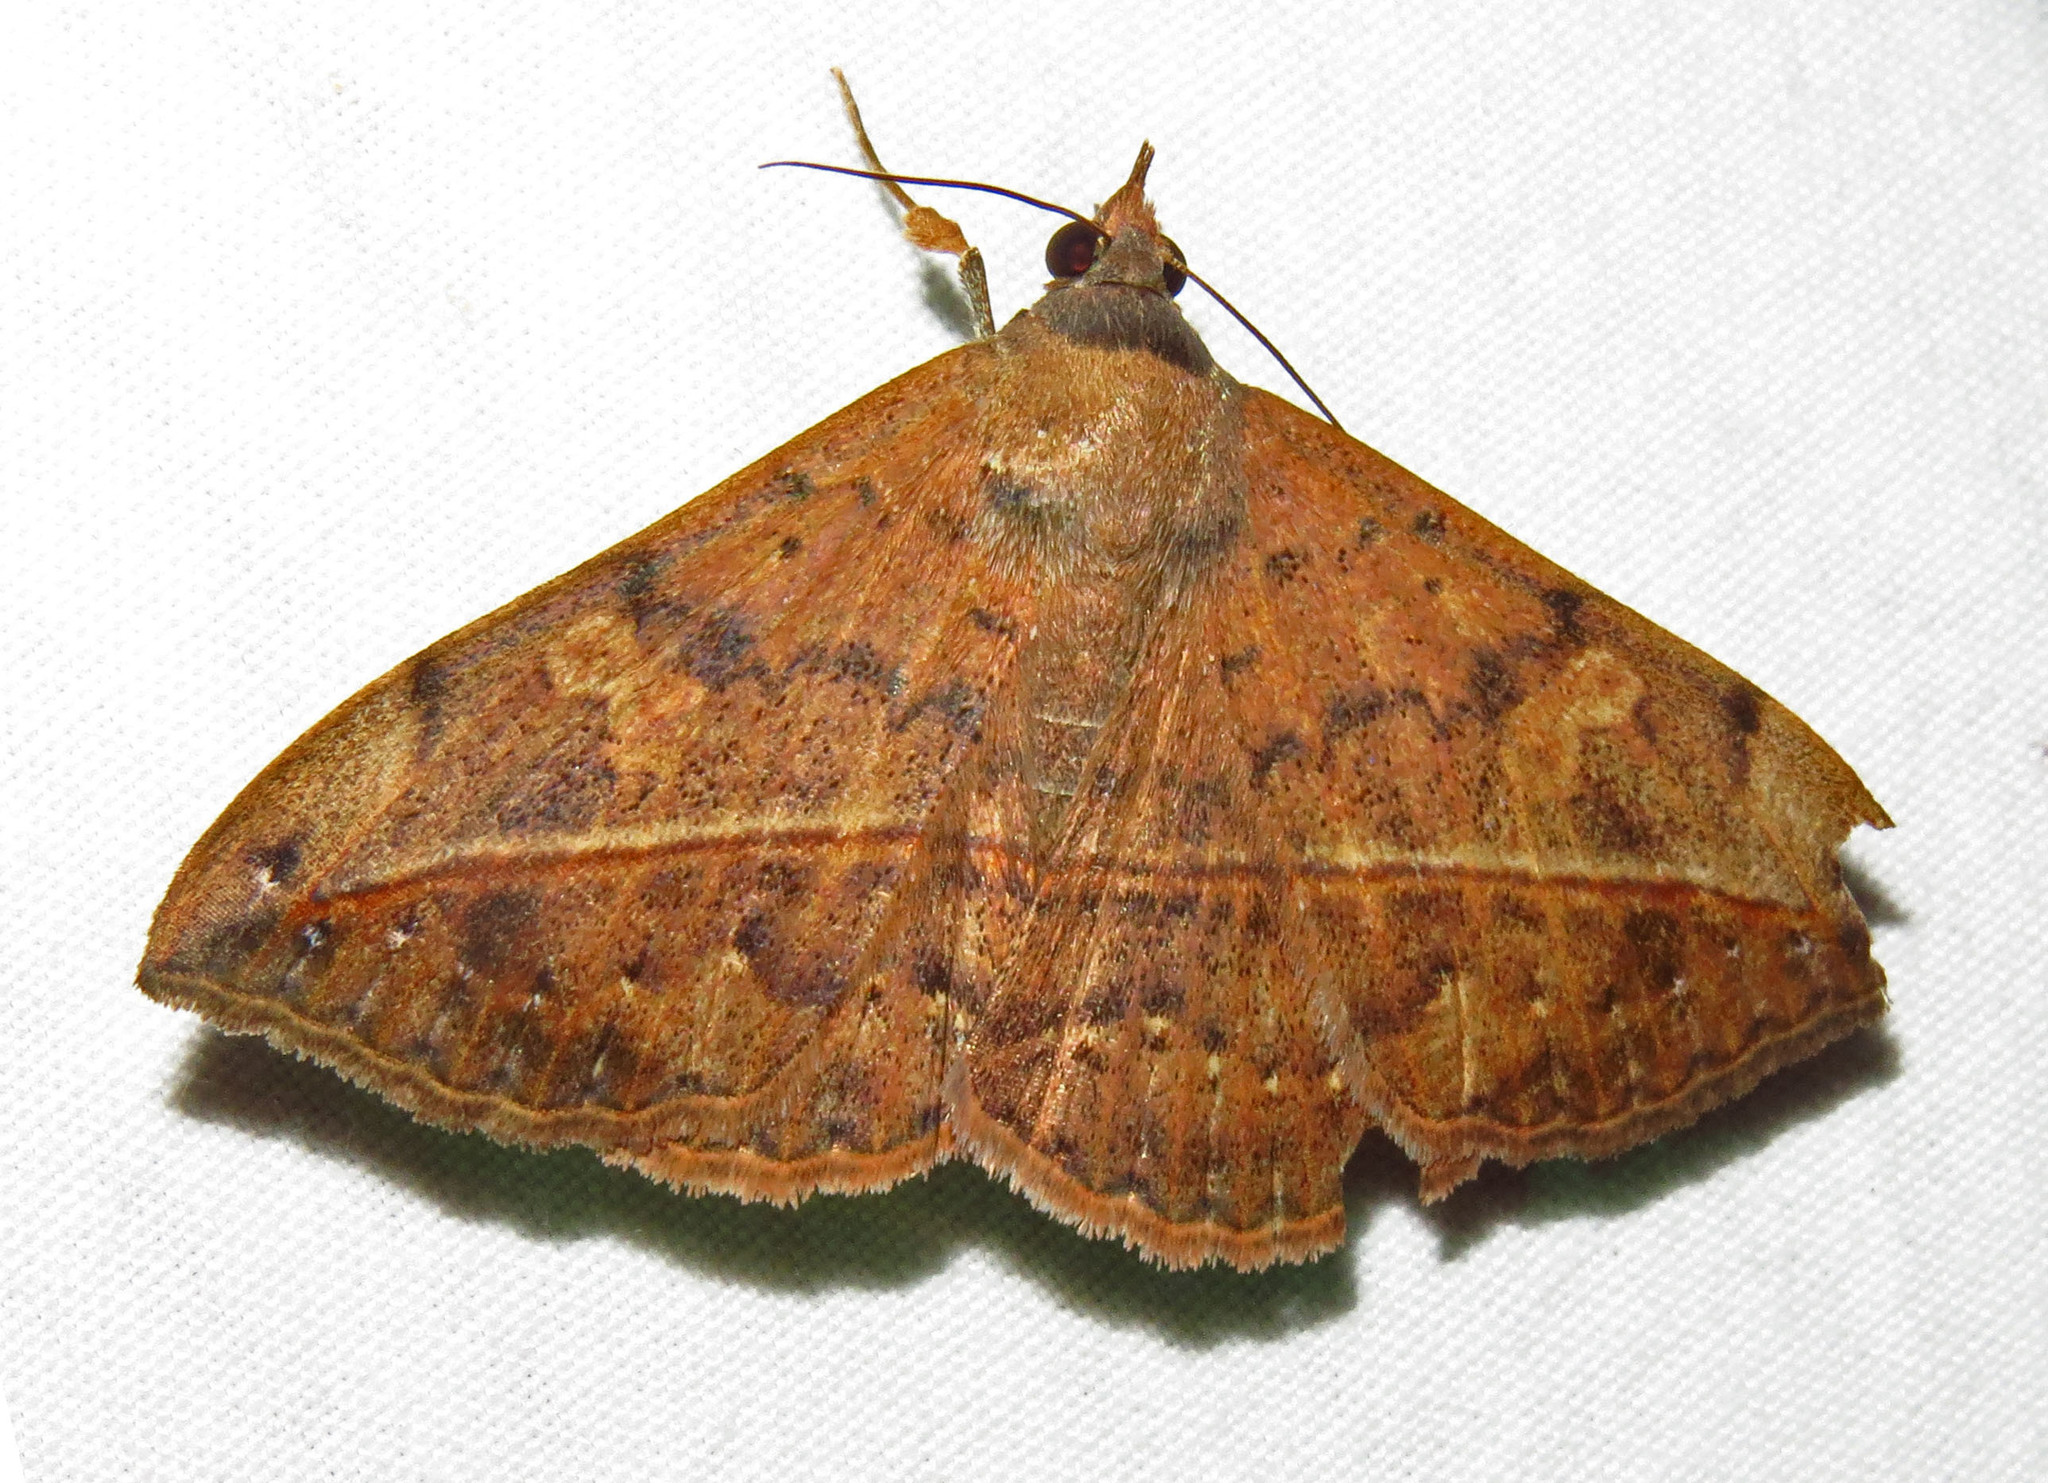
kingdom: Animalia
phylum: Arthropoda
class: Insecta
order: Lepidoptera
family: Erebidae
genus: Anticarsia
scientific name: Anticarsia gemmatalis
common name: Cutworm moth
